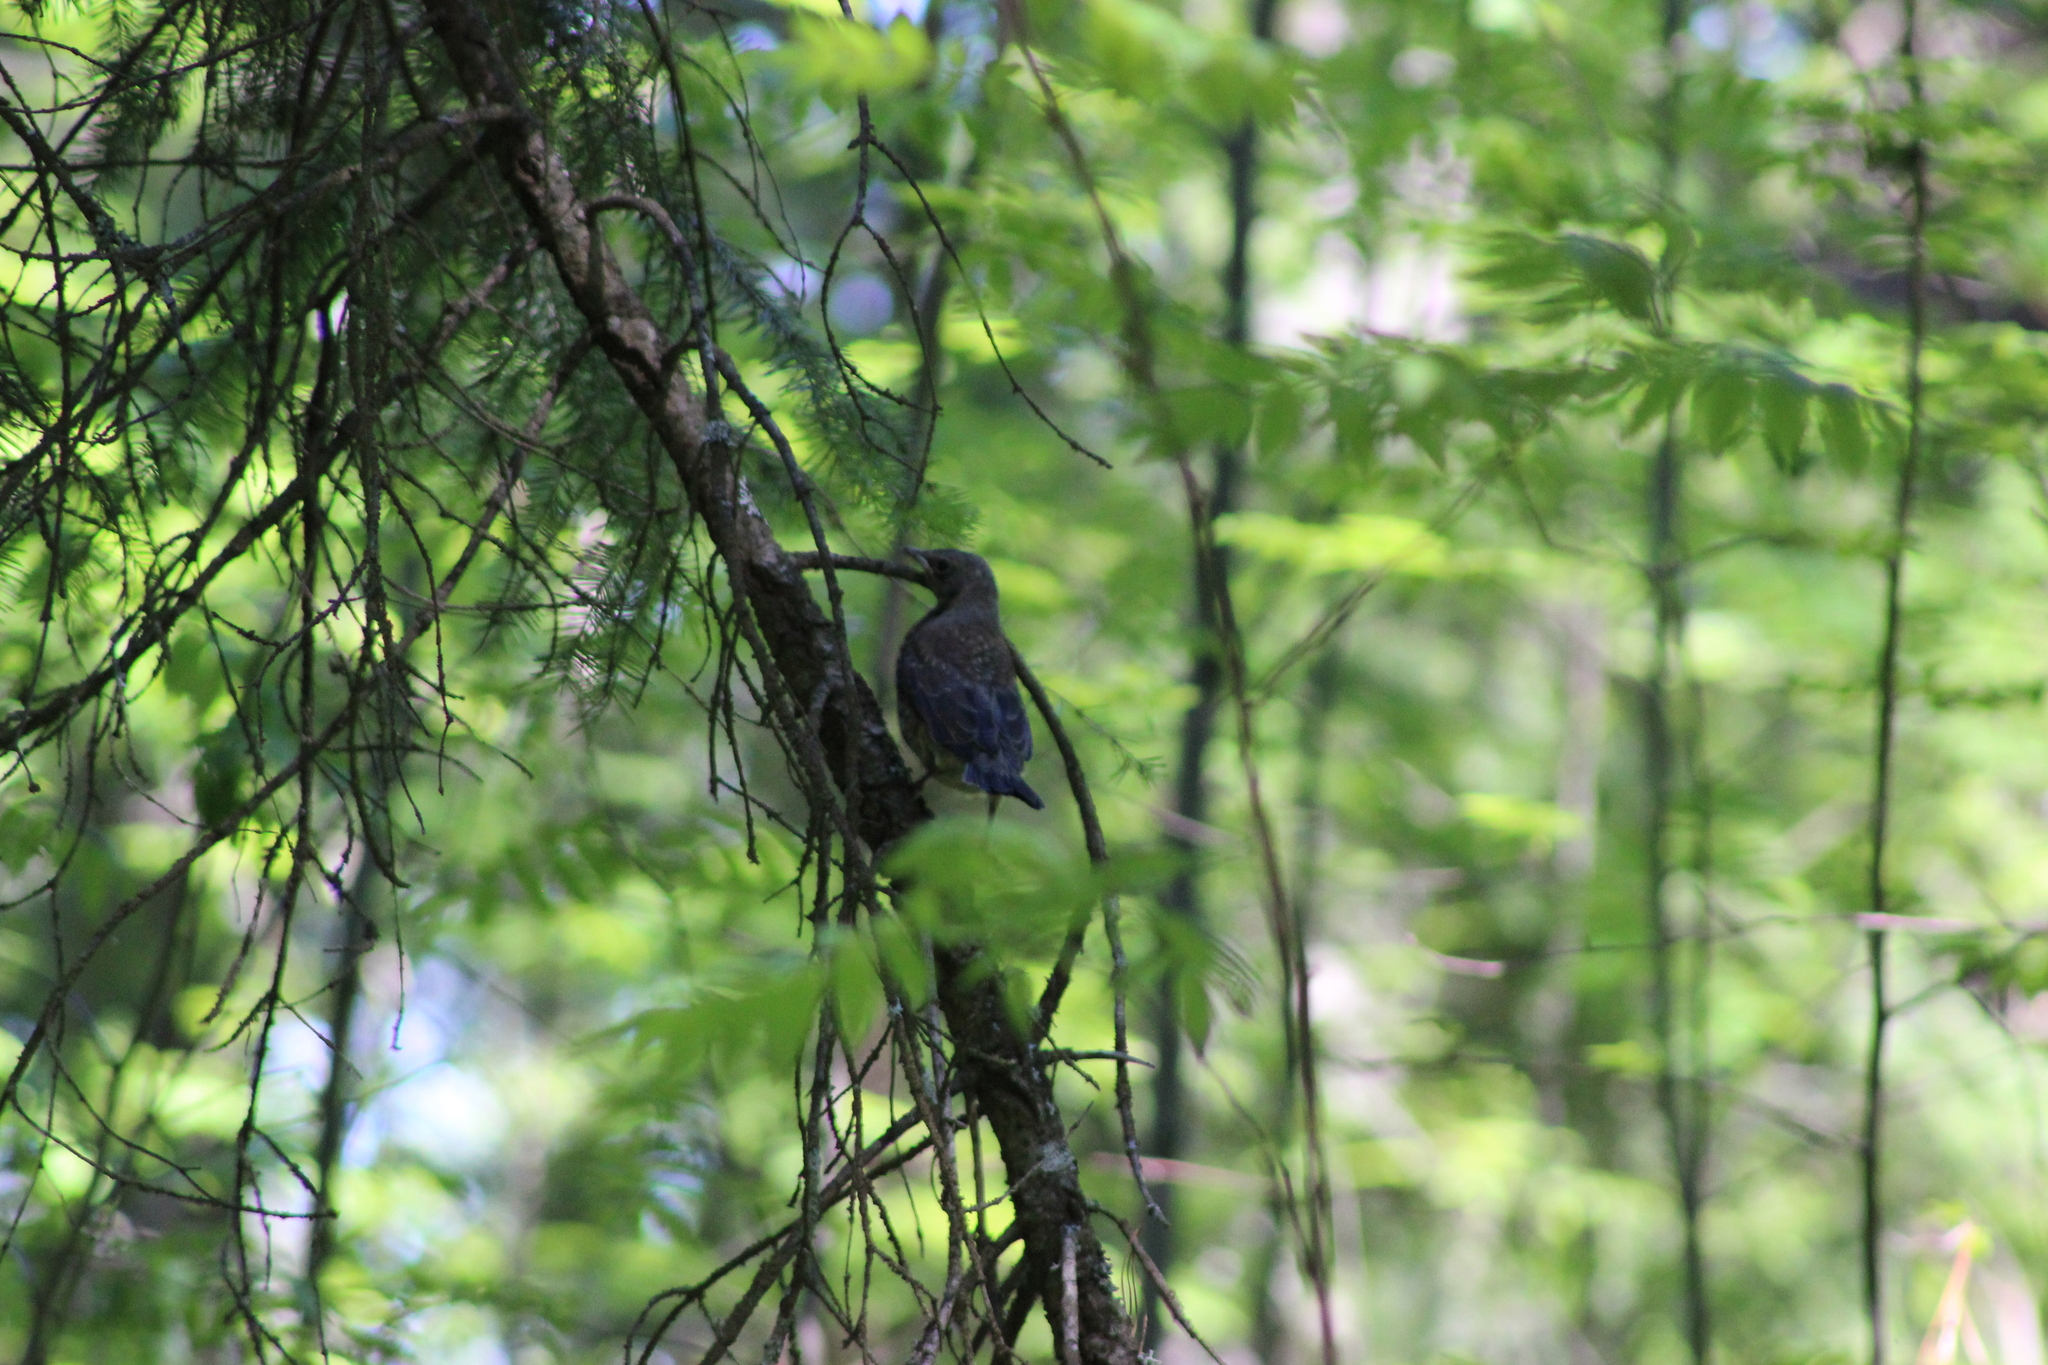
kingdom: Animalia
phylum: Chordata
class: Aves
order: Passeriformes
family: Turdidae
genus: Turdus
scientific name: Turdus pilaris
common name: Fieldfare
